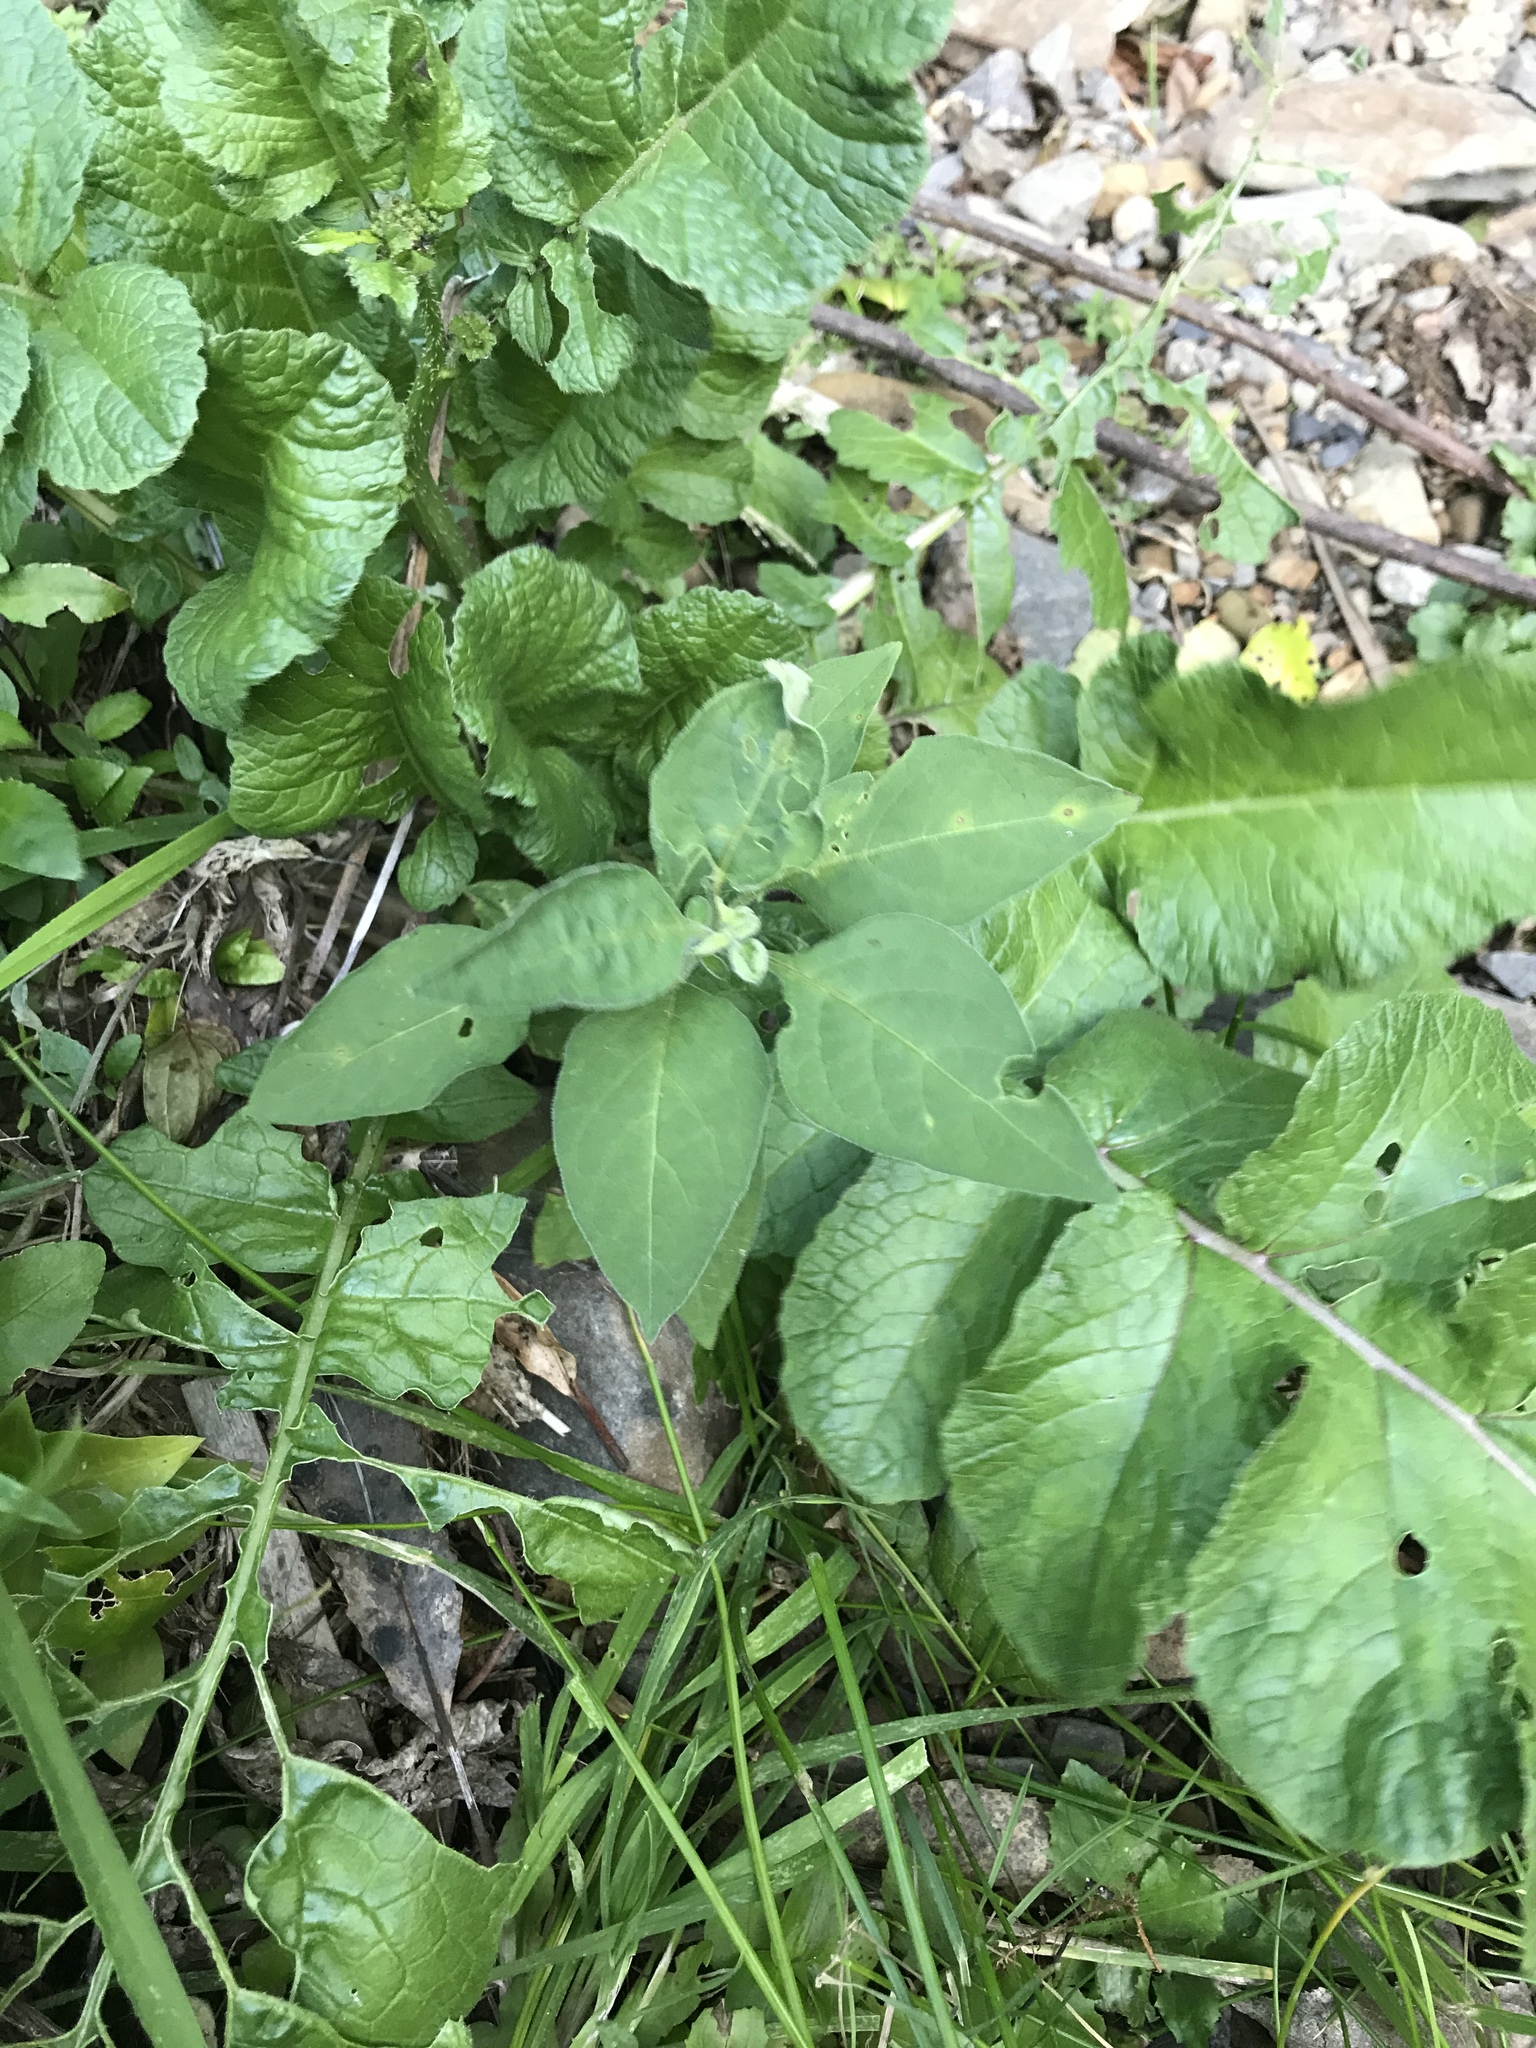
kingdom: Plantae
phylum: Tracheophyta
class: Magnoliopsida
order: Solanales
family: Solanaceae
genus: Solanum
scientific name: Solanum chenopodioides
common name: Tall nightshade
